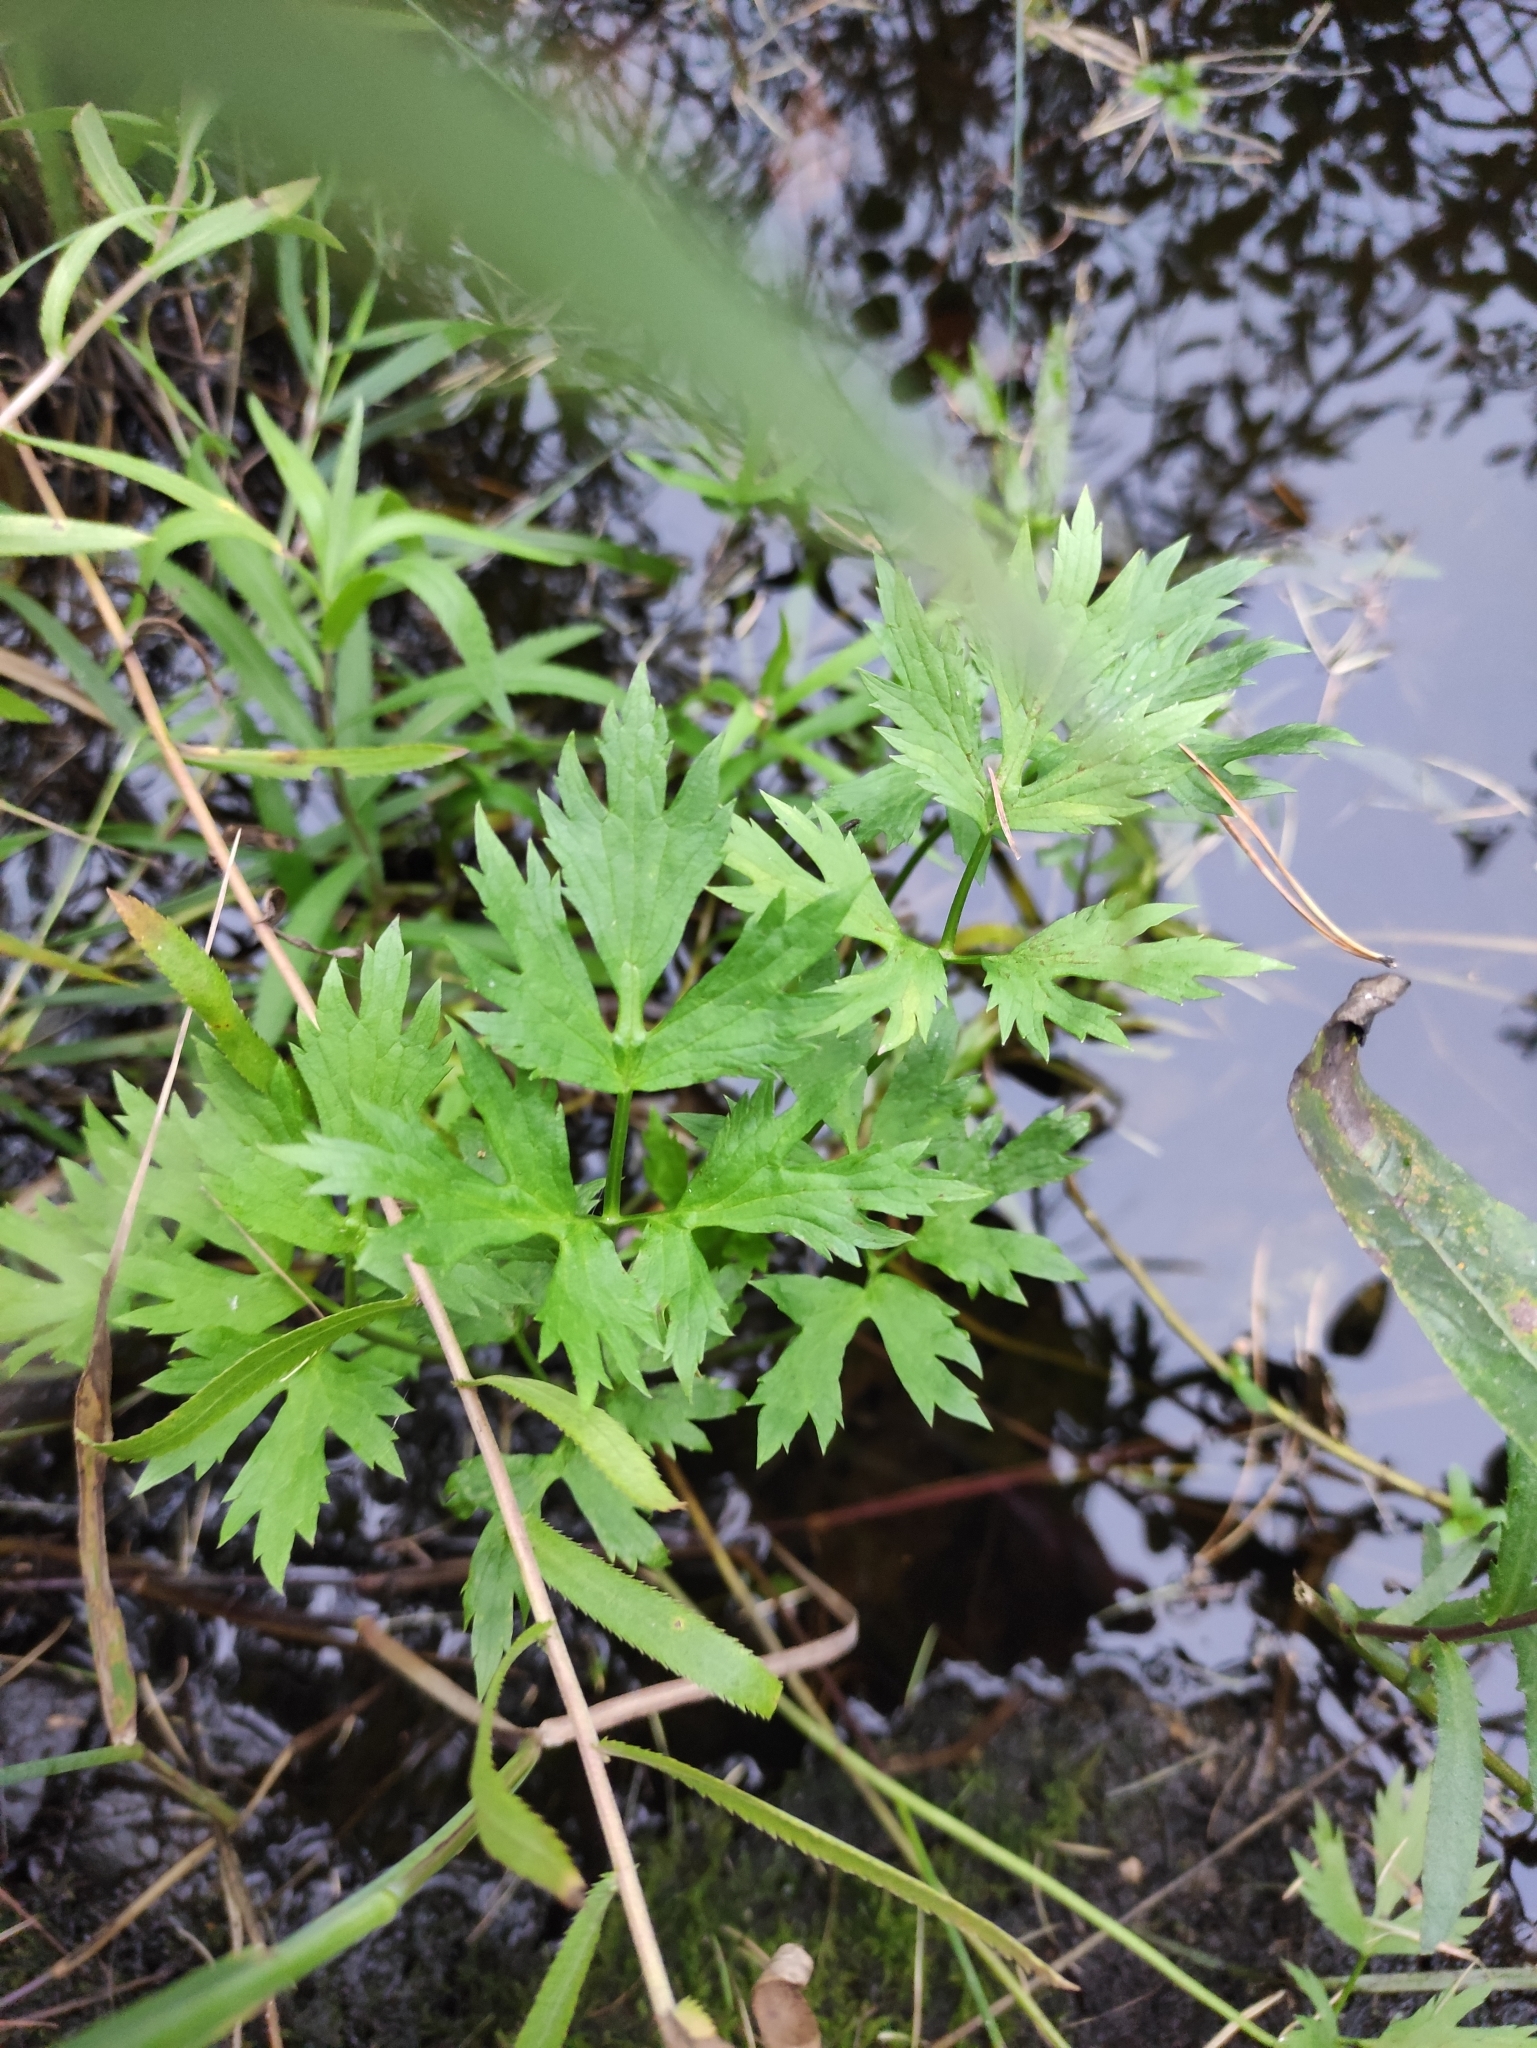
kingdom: Plantae
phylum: Tracheophyta
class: Magnoliopsida
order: Ranunculales
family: Ranunculaceae
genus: Ranunculus
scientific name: Ranunculus repens
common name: Creeping buttercup
